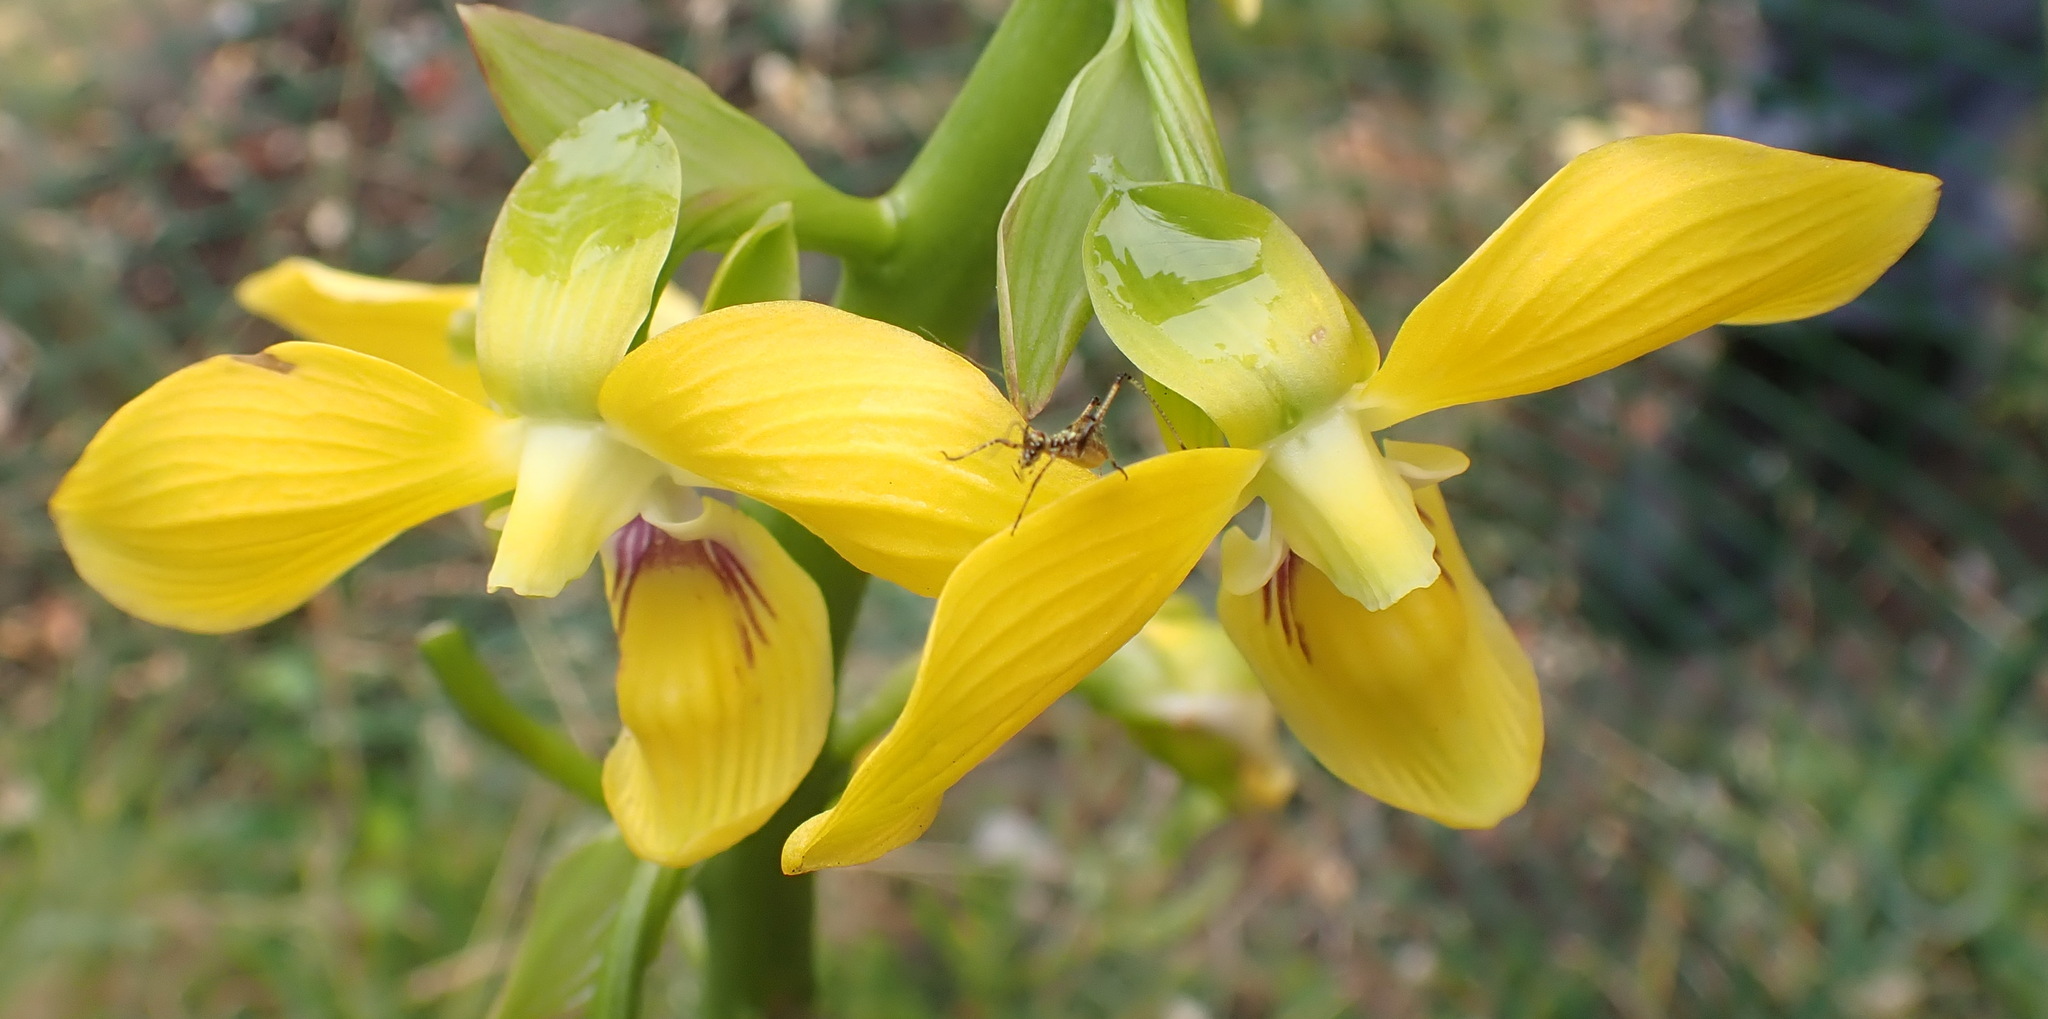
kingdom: Plantae
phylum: Tracheophyta
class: Liliopsida
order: Asparagales
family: Orchidaceae
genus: Eulophia
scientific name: Eulophia speciosa
